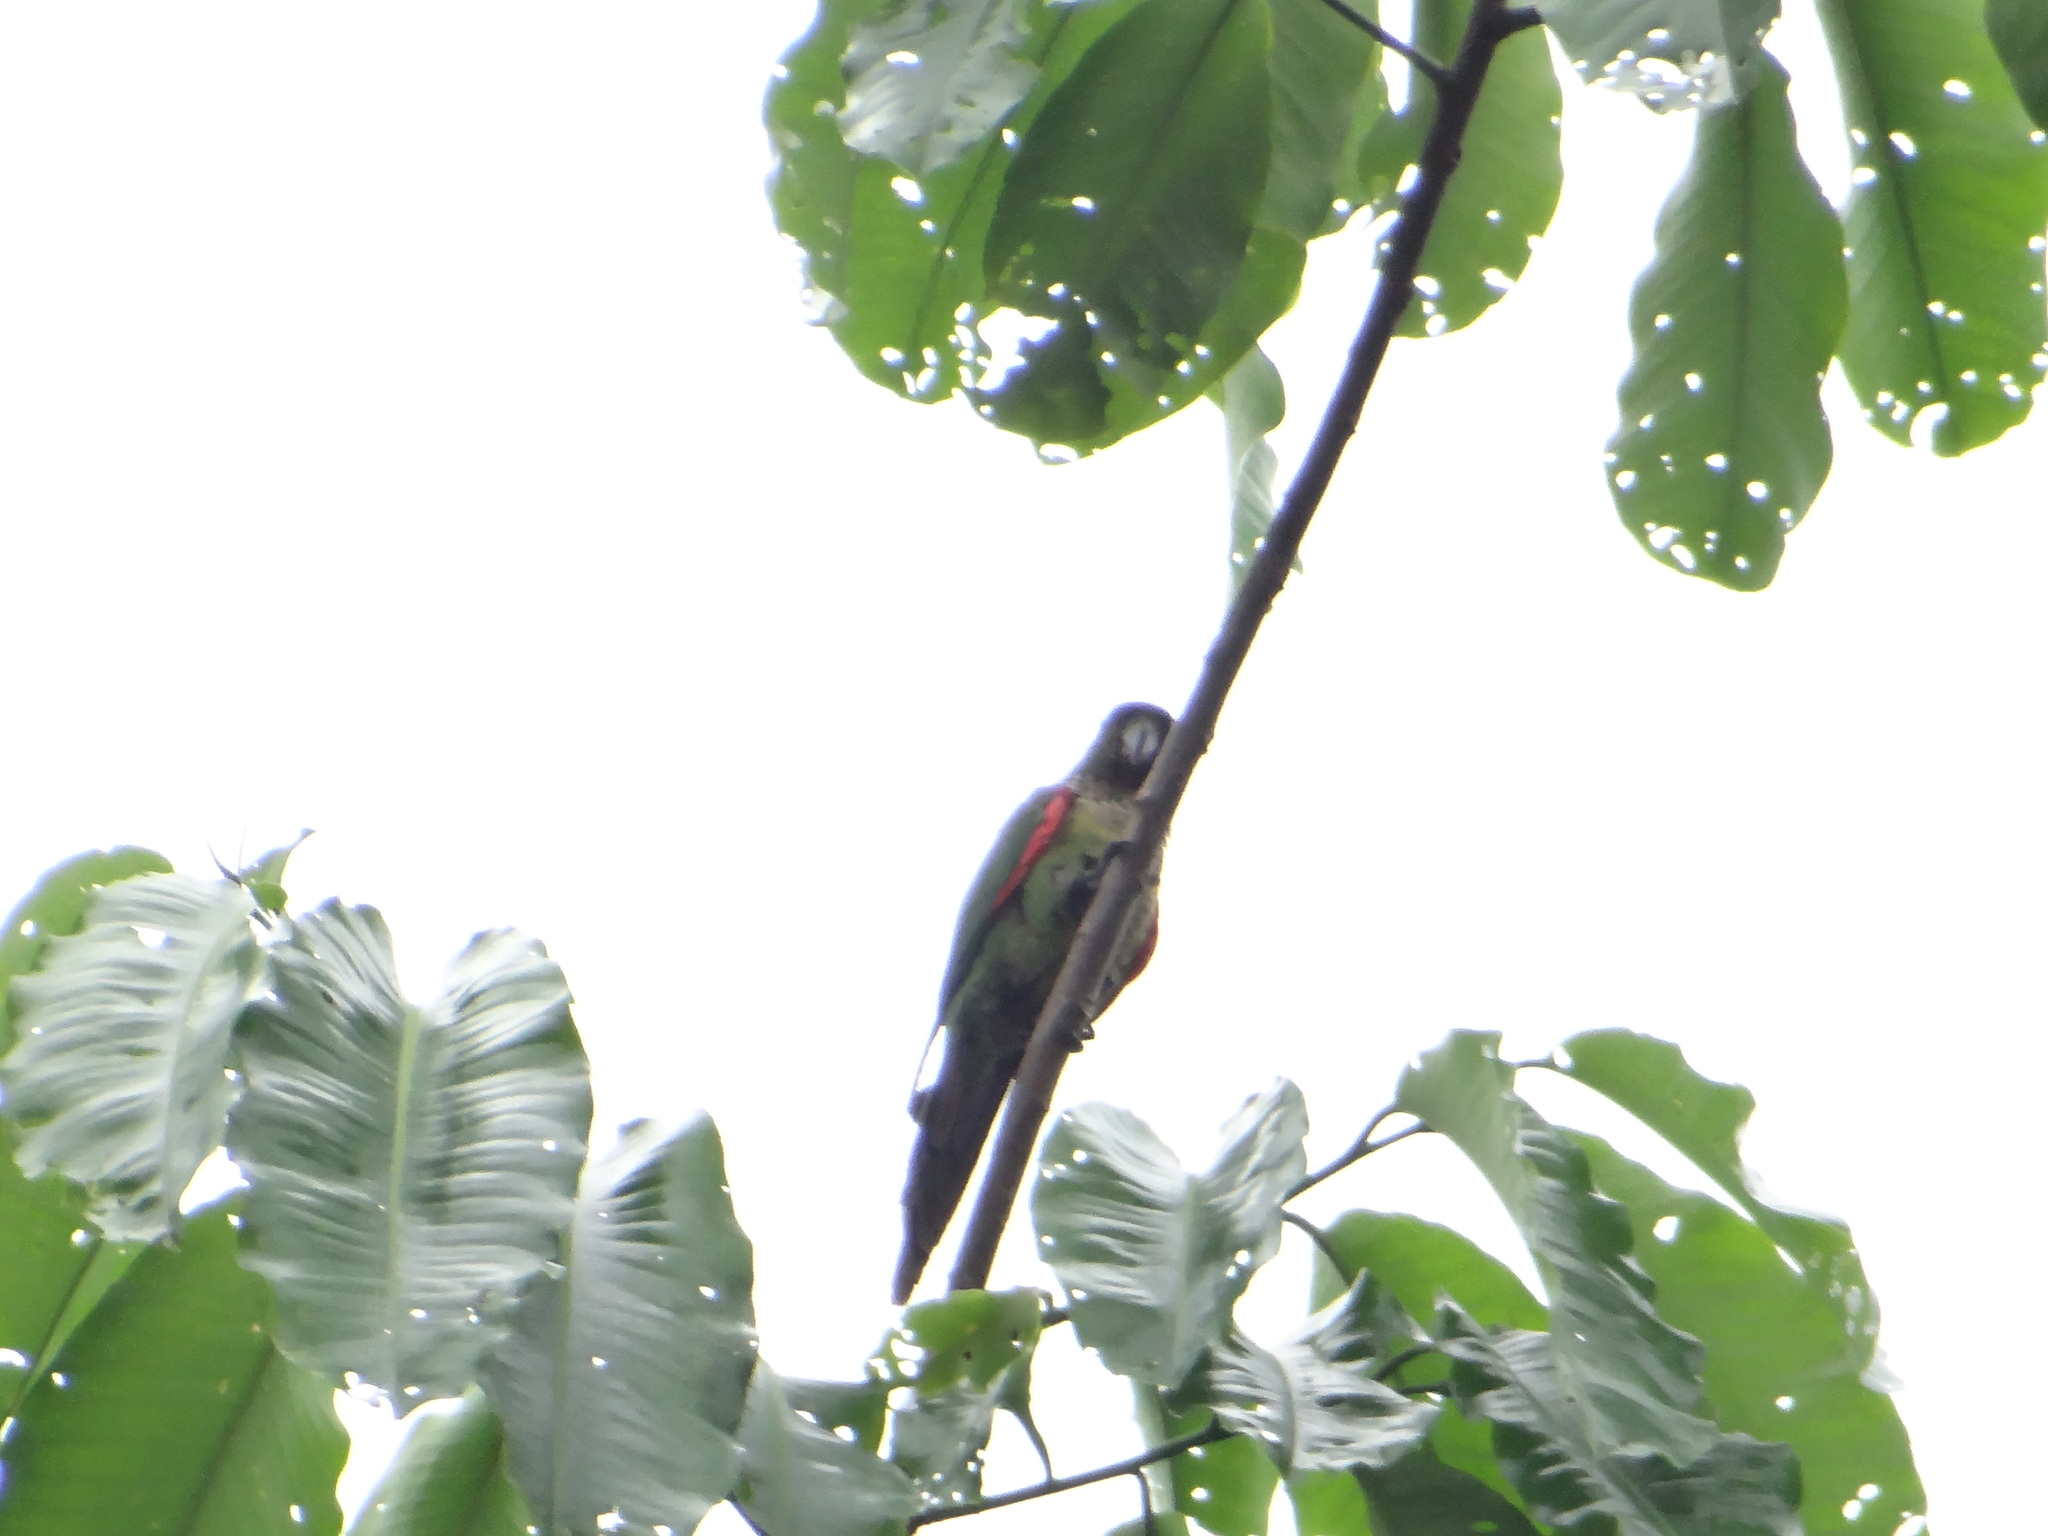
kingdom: Animalia
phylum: Chordata
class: Aves
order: Psittaciformes
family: Psittacidae
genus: Pyrrhura
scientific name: Pyrrhura rupicola
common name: Black-capped parakeet
